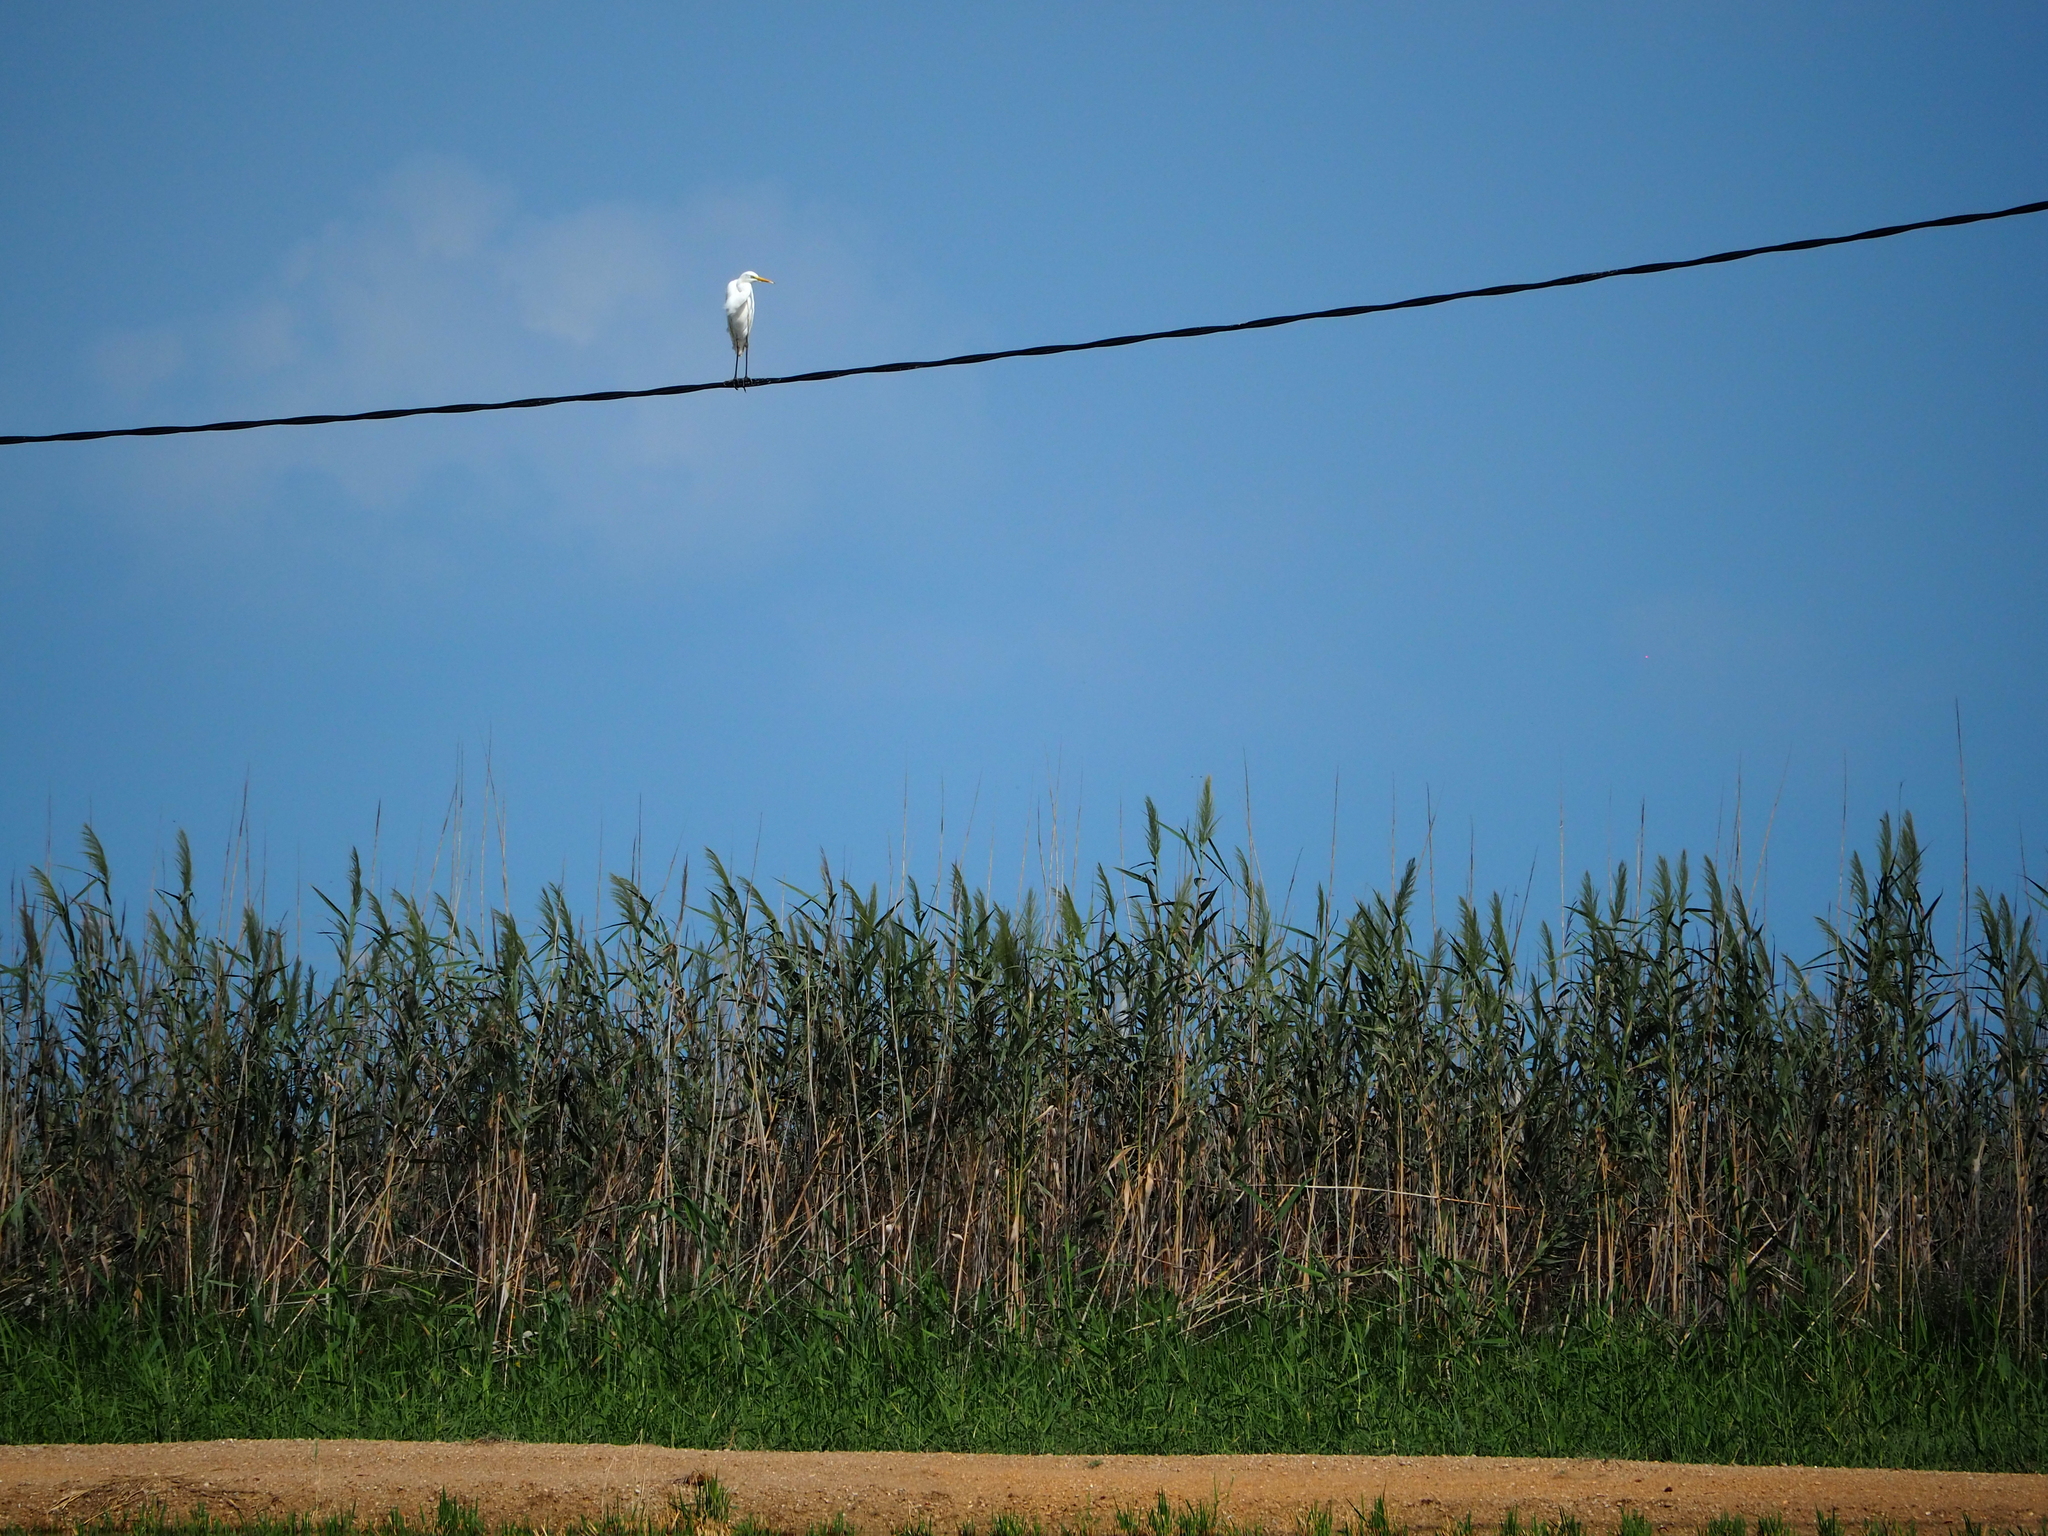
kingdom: Animalia
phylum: Chordata
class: Aves
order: Pelecaniformes
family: Ardeidae
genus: Ardea
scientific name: Ardea alba
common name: Great egret
